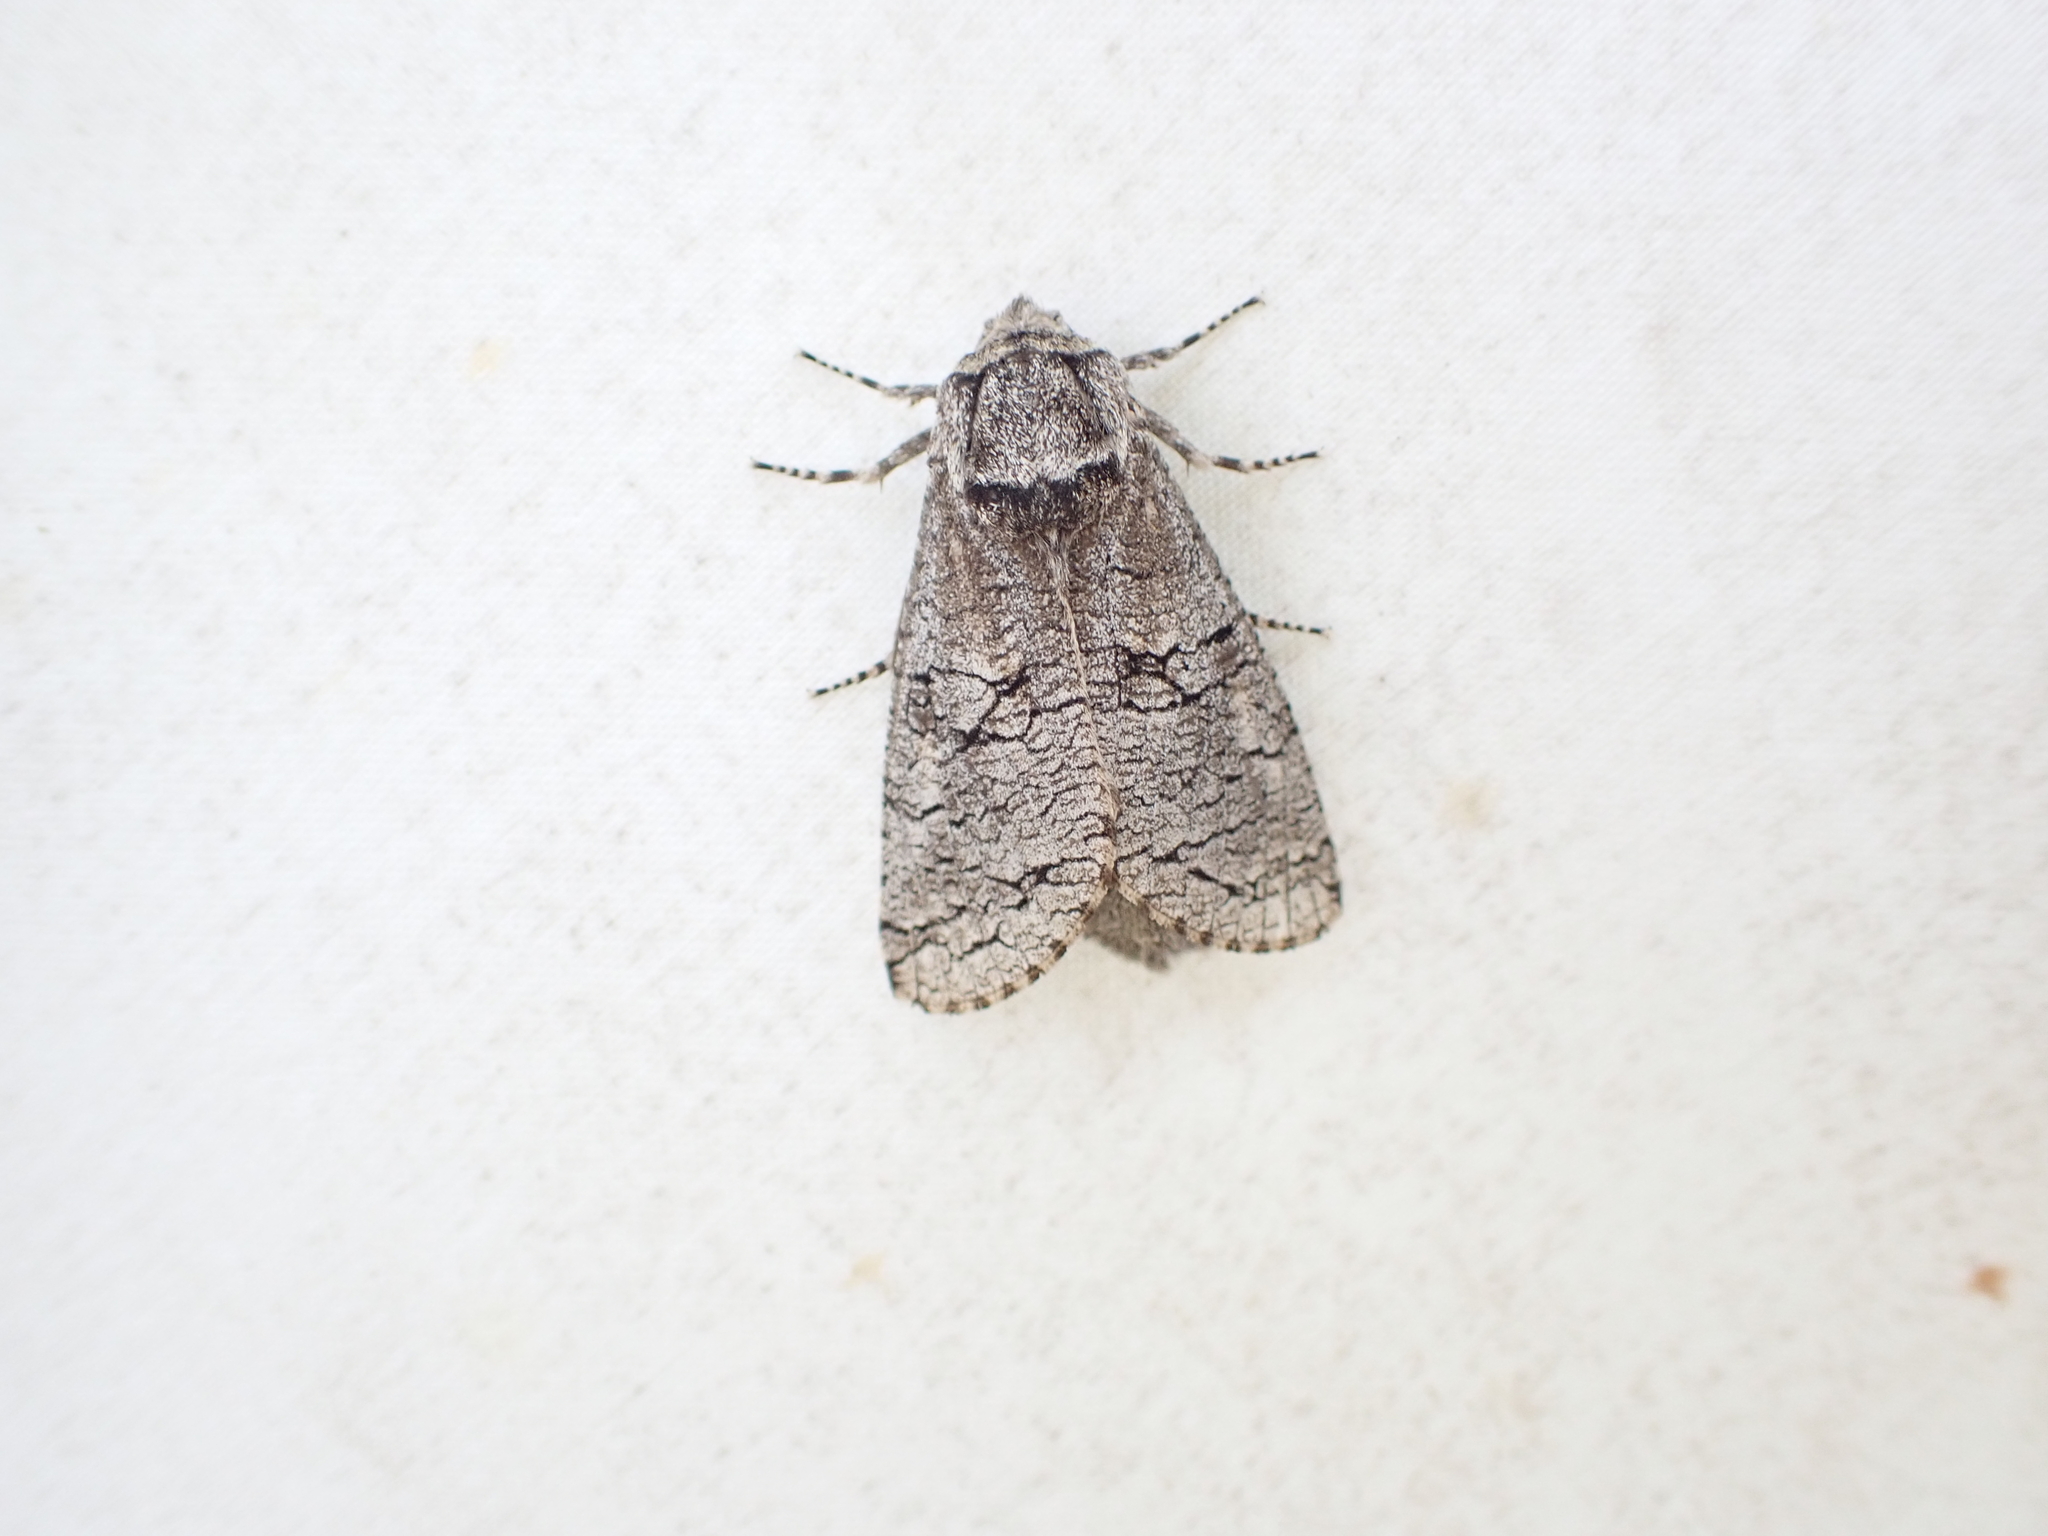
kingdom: Animalia
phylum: Arthropoda
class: Insecta
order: Lepidoptera
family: Cossidae
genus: Acossus
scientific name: Acossus populi
